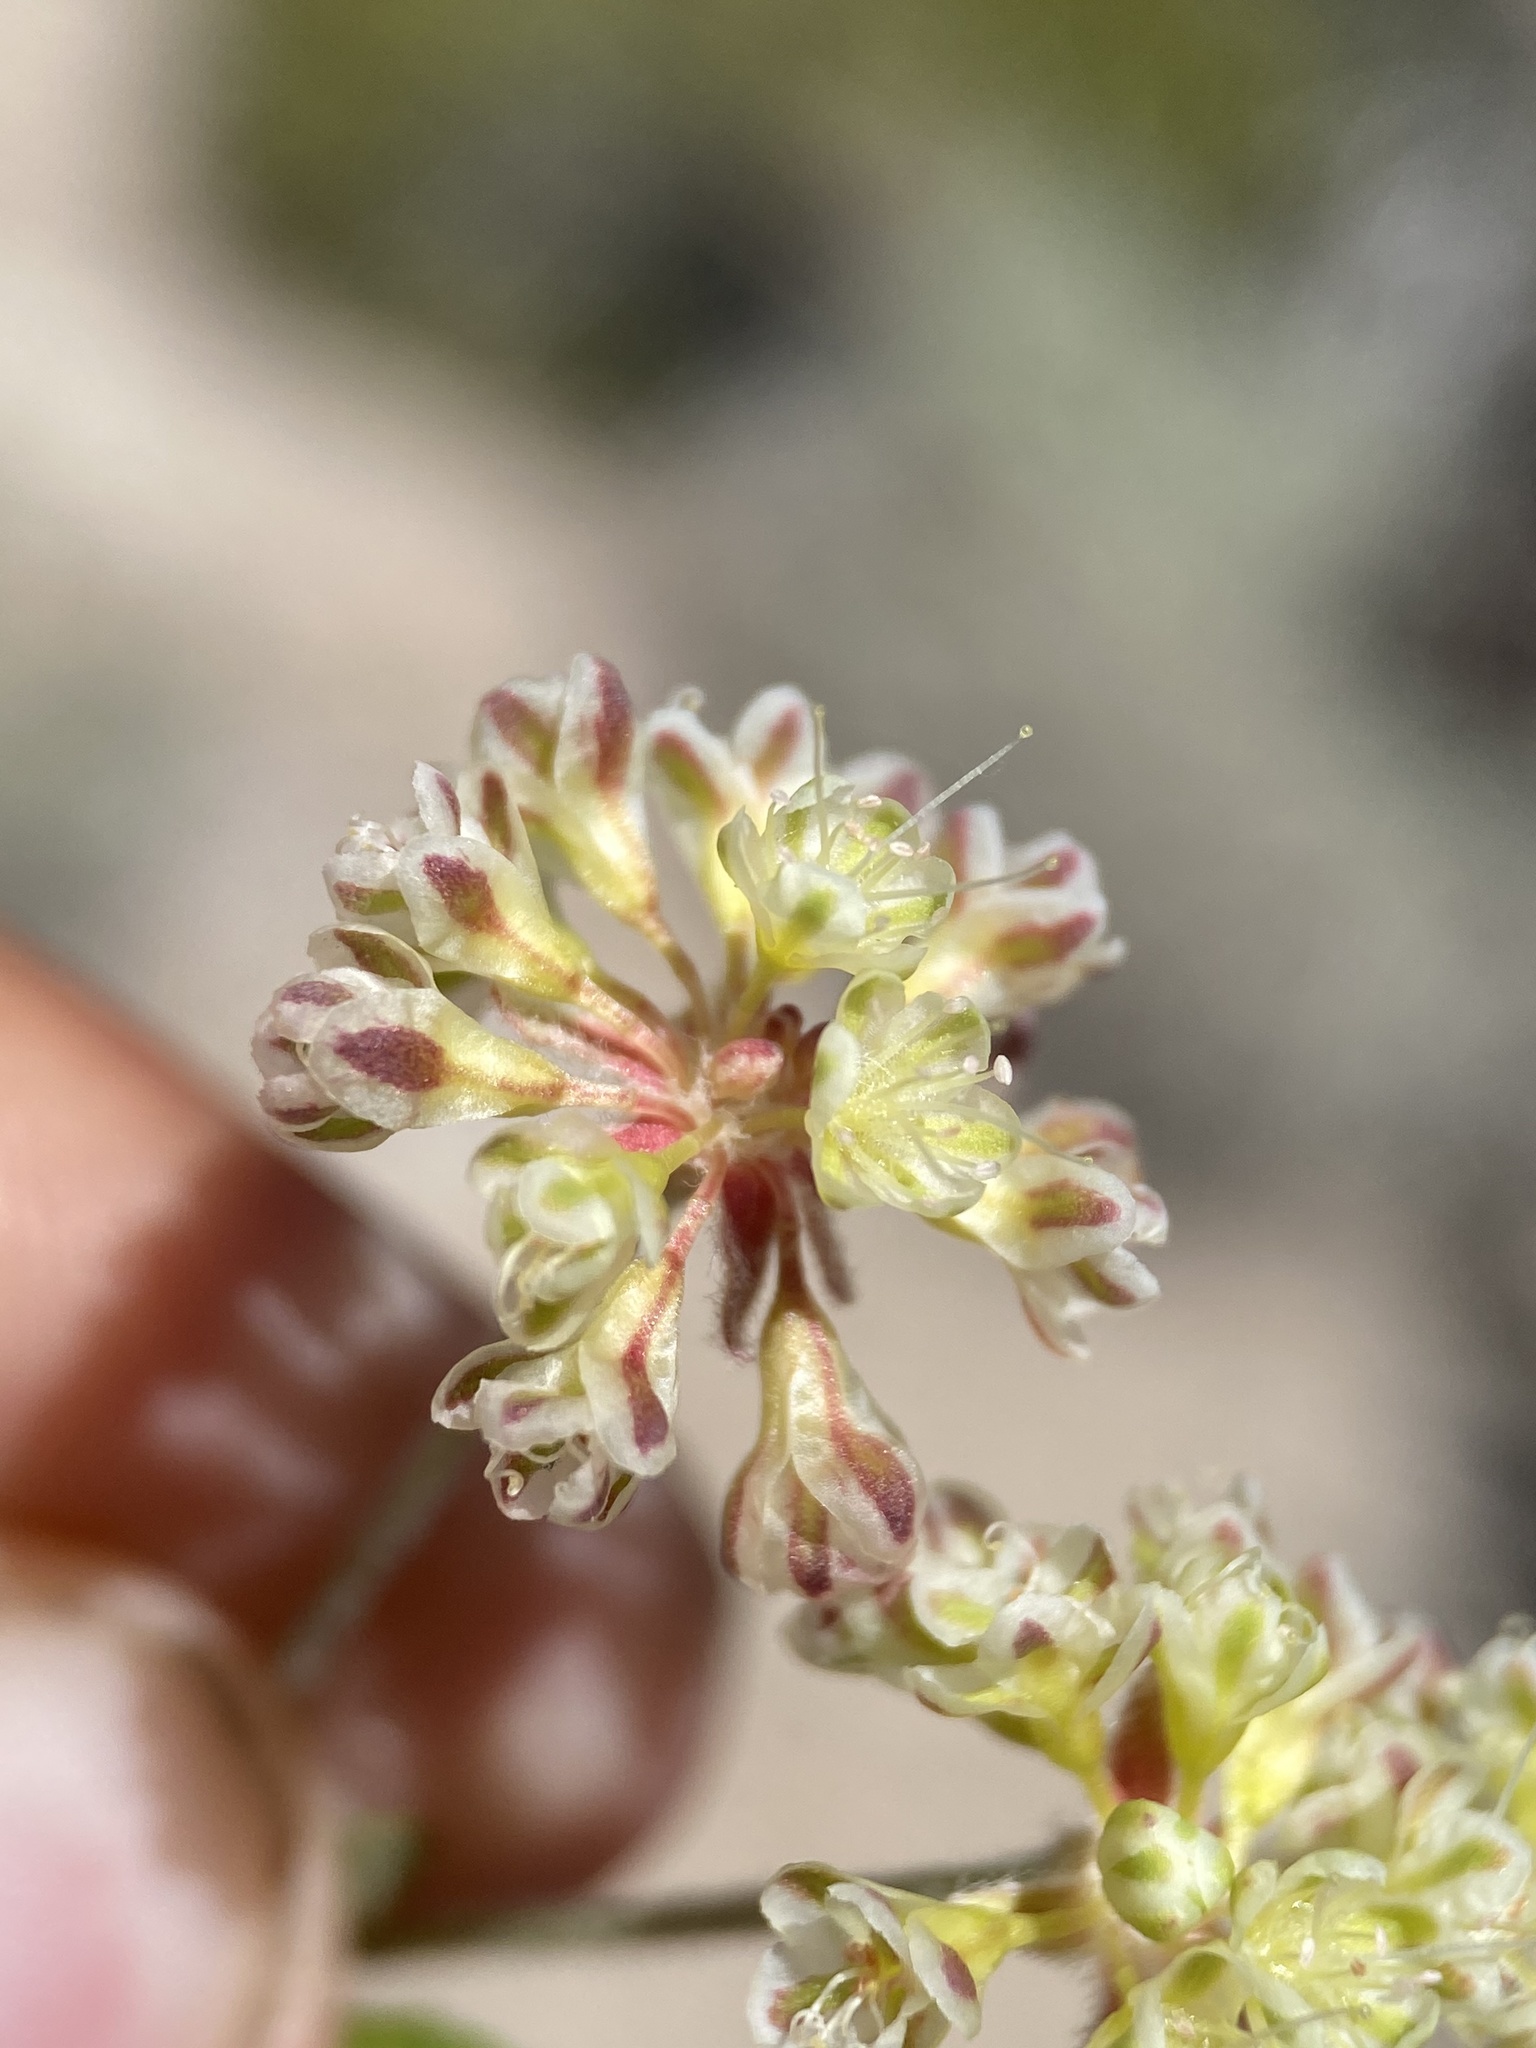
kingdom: Plantae
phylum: Tracheophyta
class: Magnoliopsida
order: Caryophyllales
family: Polygonaceae
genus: Eriogonum
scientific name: Eriogonum umbellatum
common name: Sulfur-buckwheat
